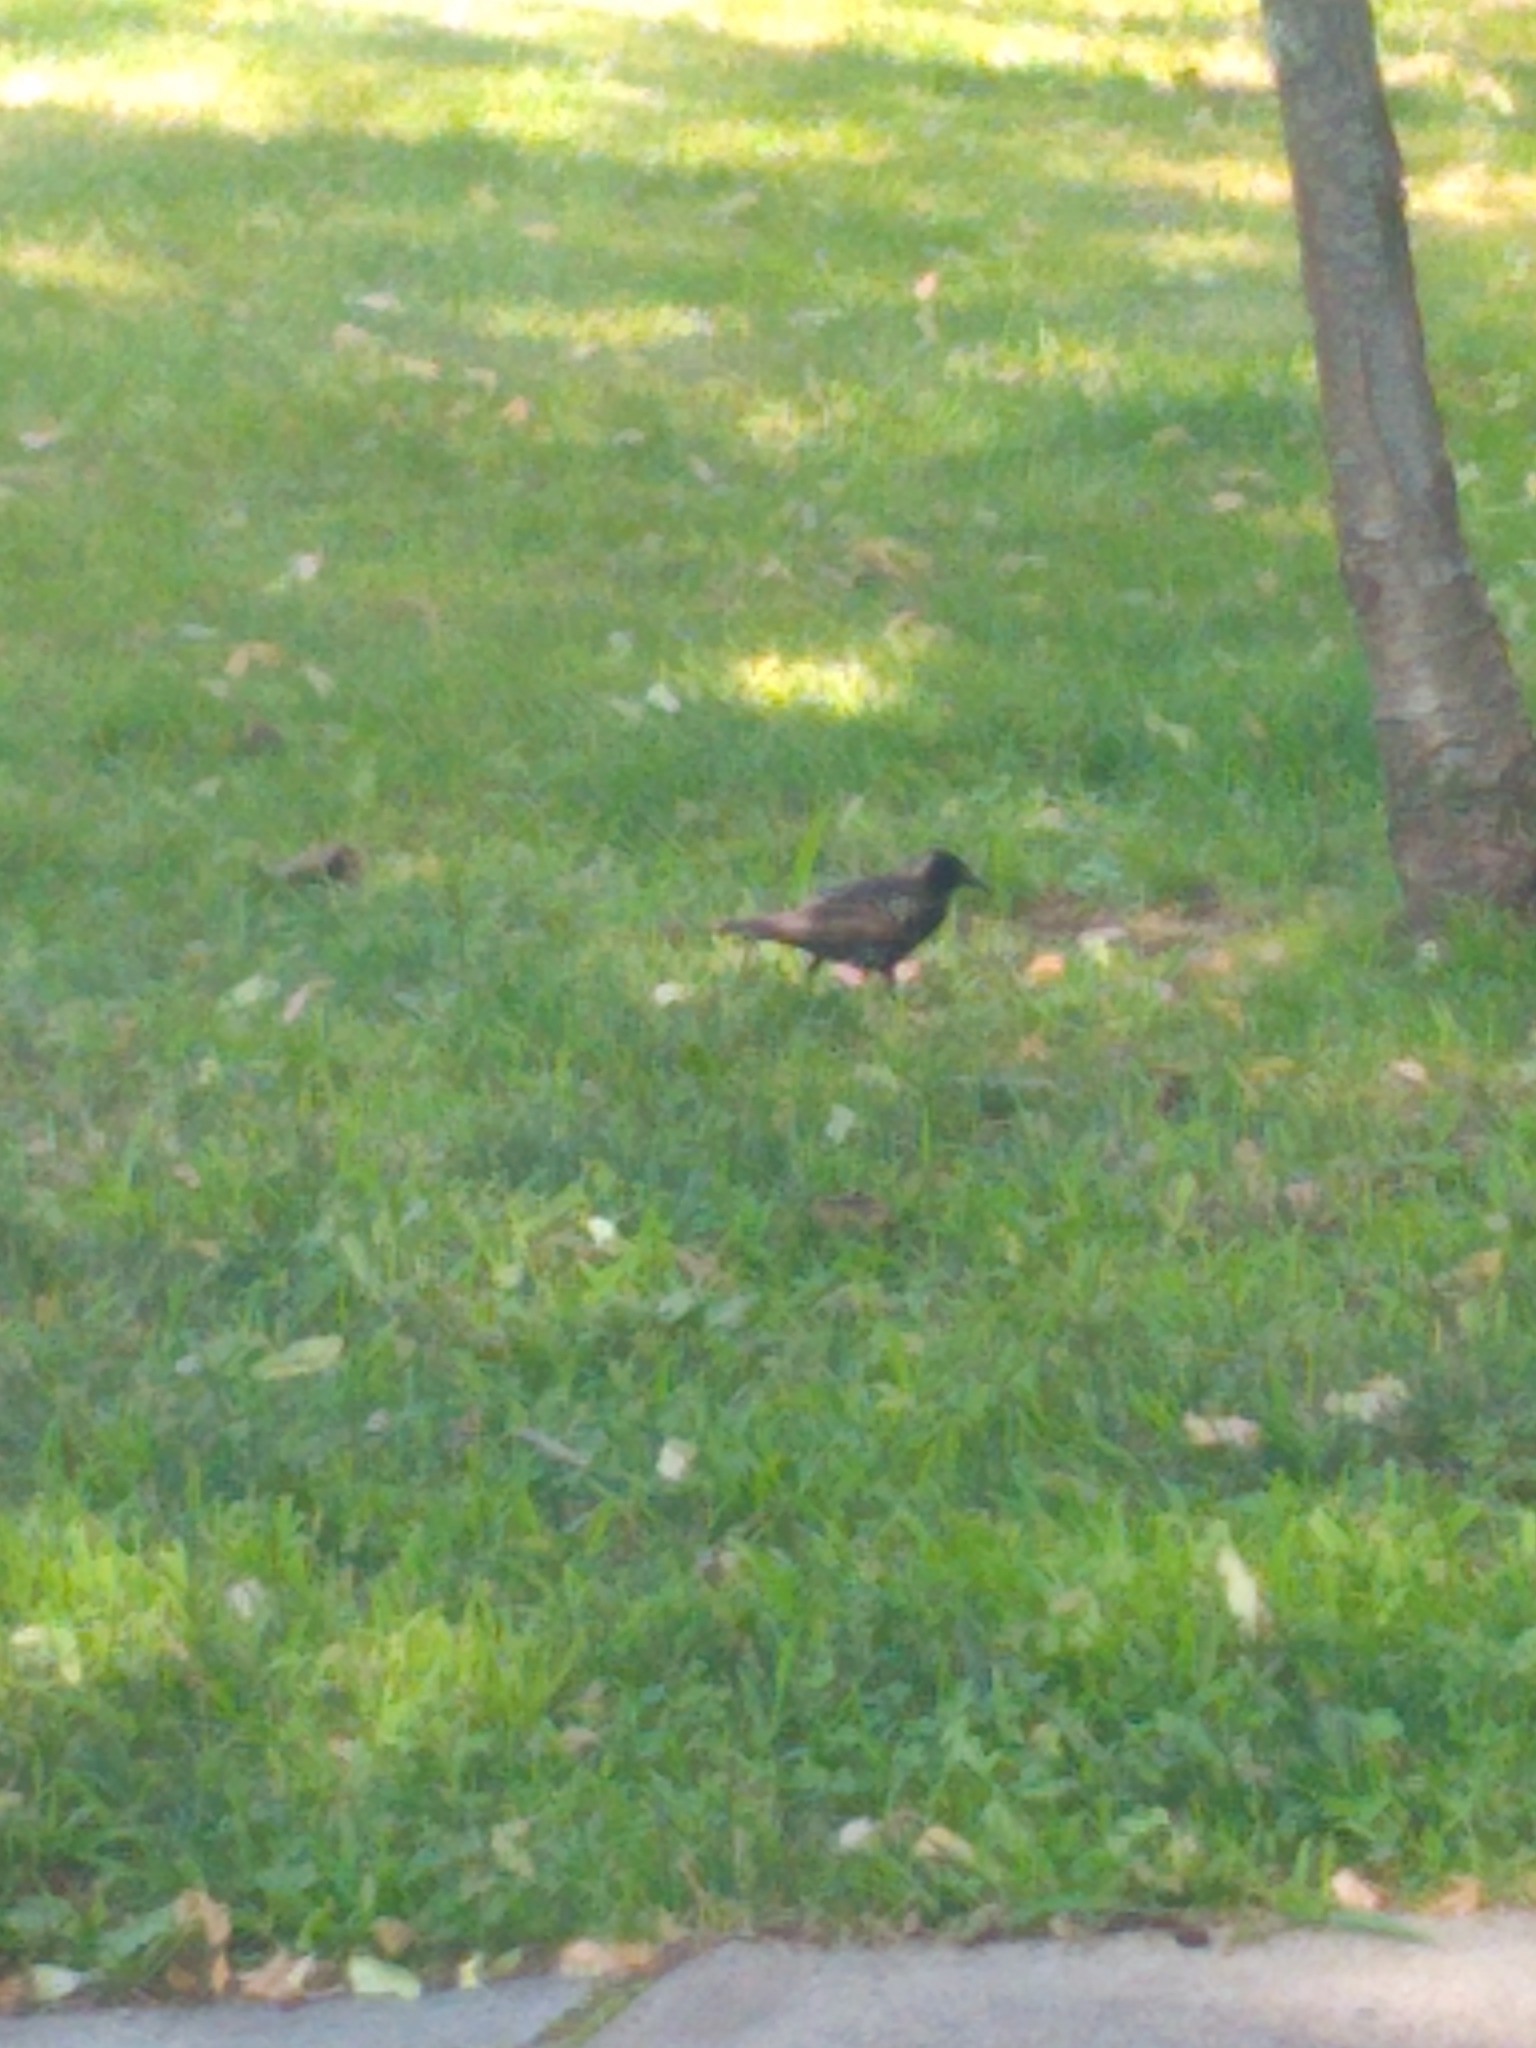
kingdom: Animalia
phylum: Chordata
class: Aves
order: Passeriformes
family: Sturnidae
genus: Sturnus
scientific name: Sturnus vulgaris
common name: Common starling
